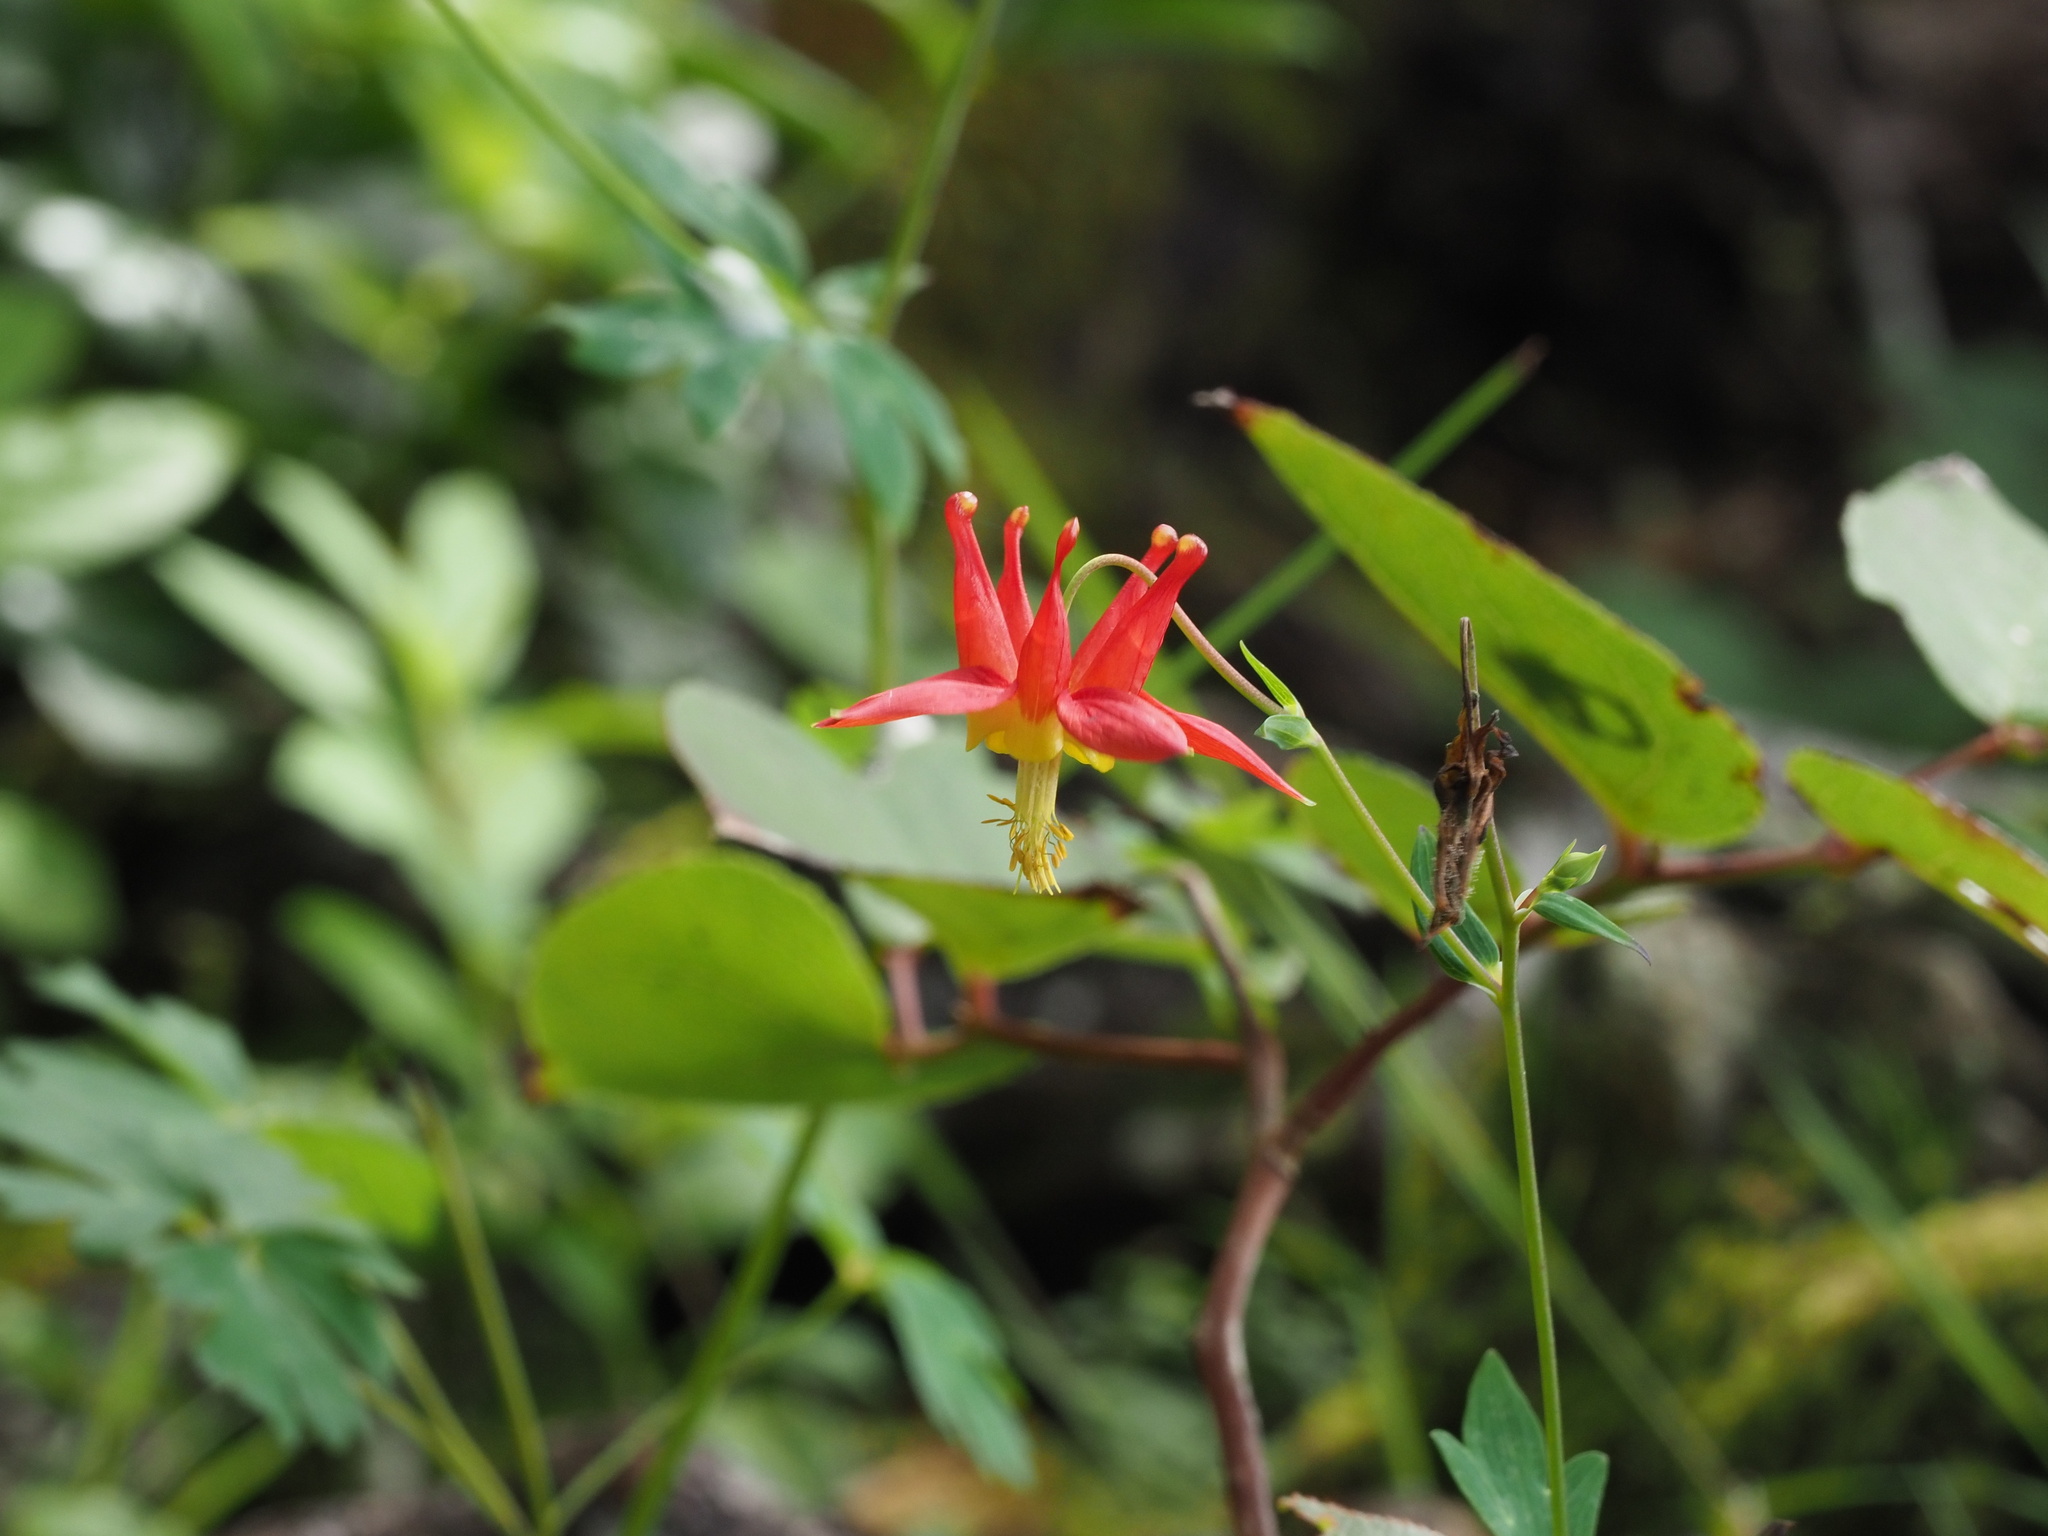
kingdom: Plantae
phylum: Tracheophyta
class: Magnoliopsida
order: Ranunculales
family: Ranunculaceae
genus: Aquilegia
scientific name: Aquilegia formosa
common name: Sitka columbine
